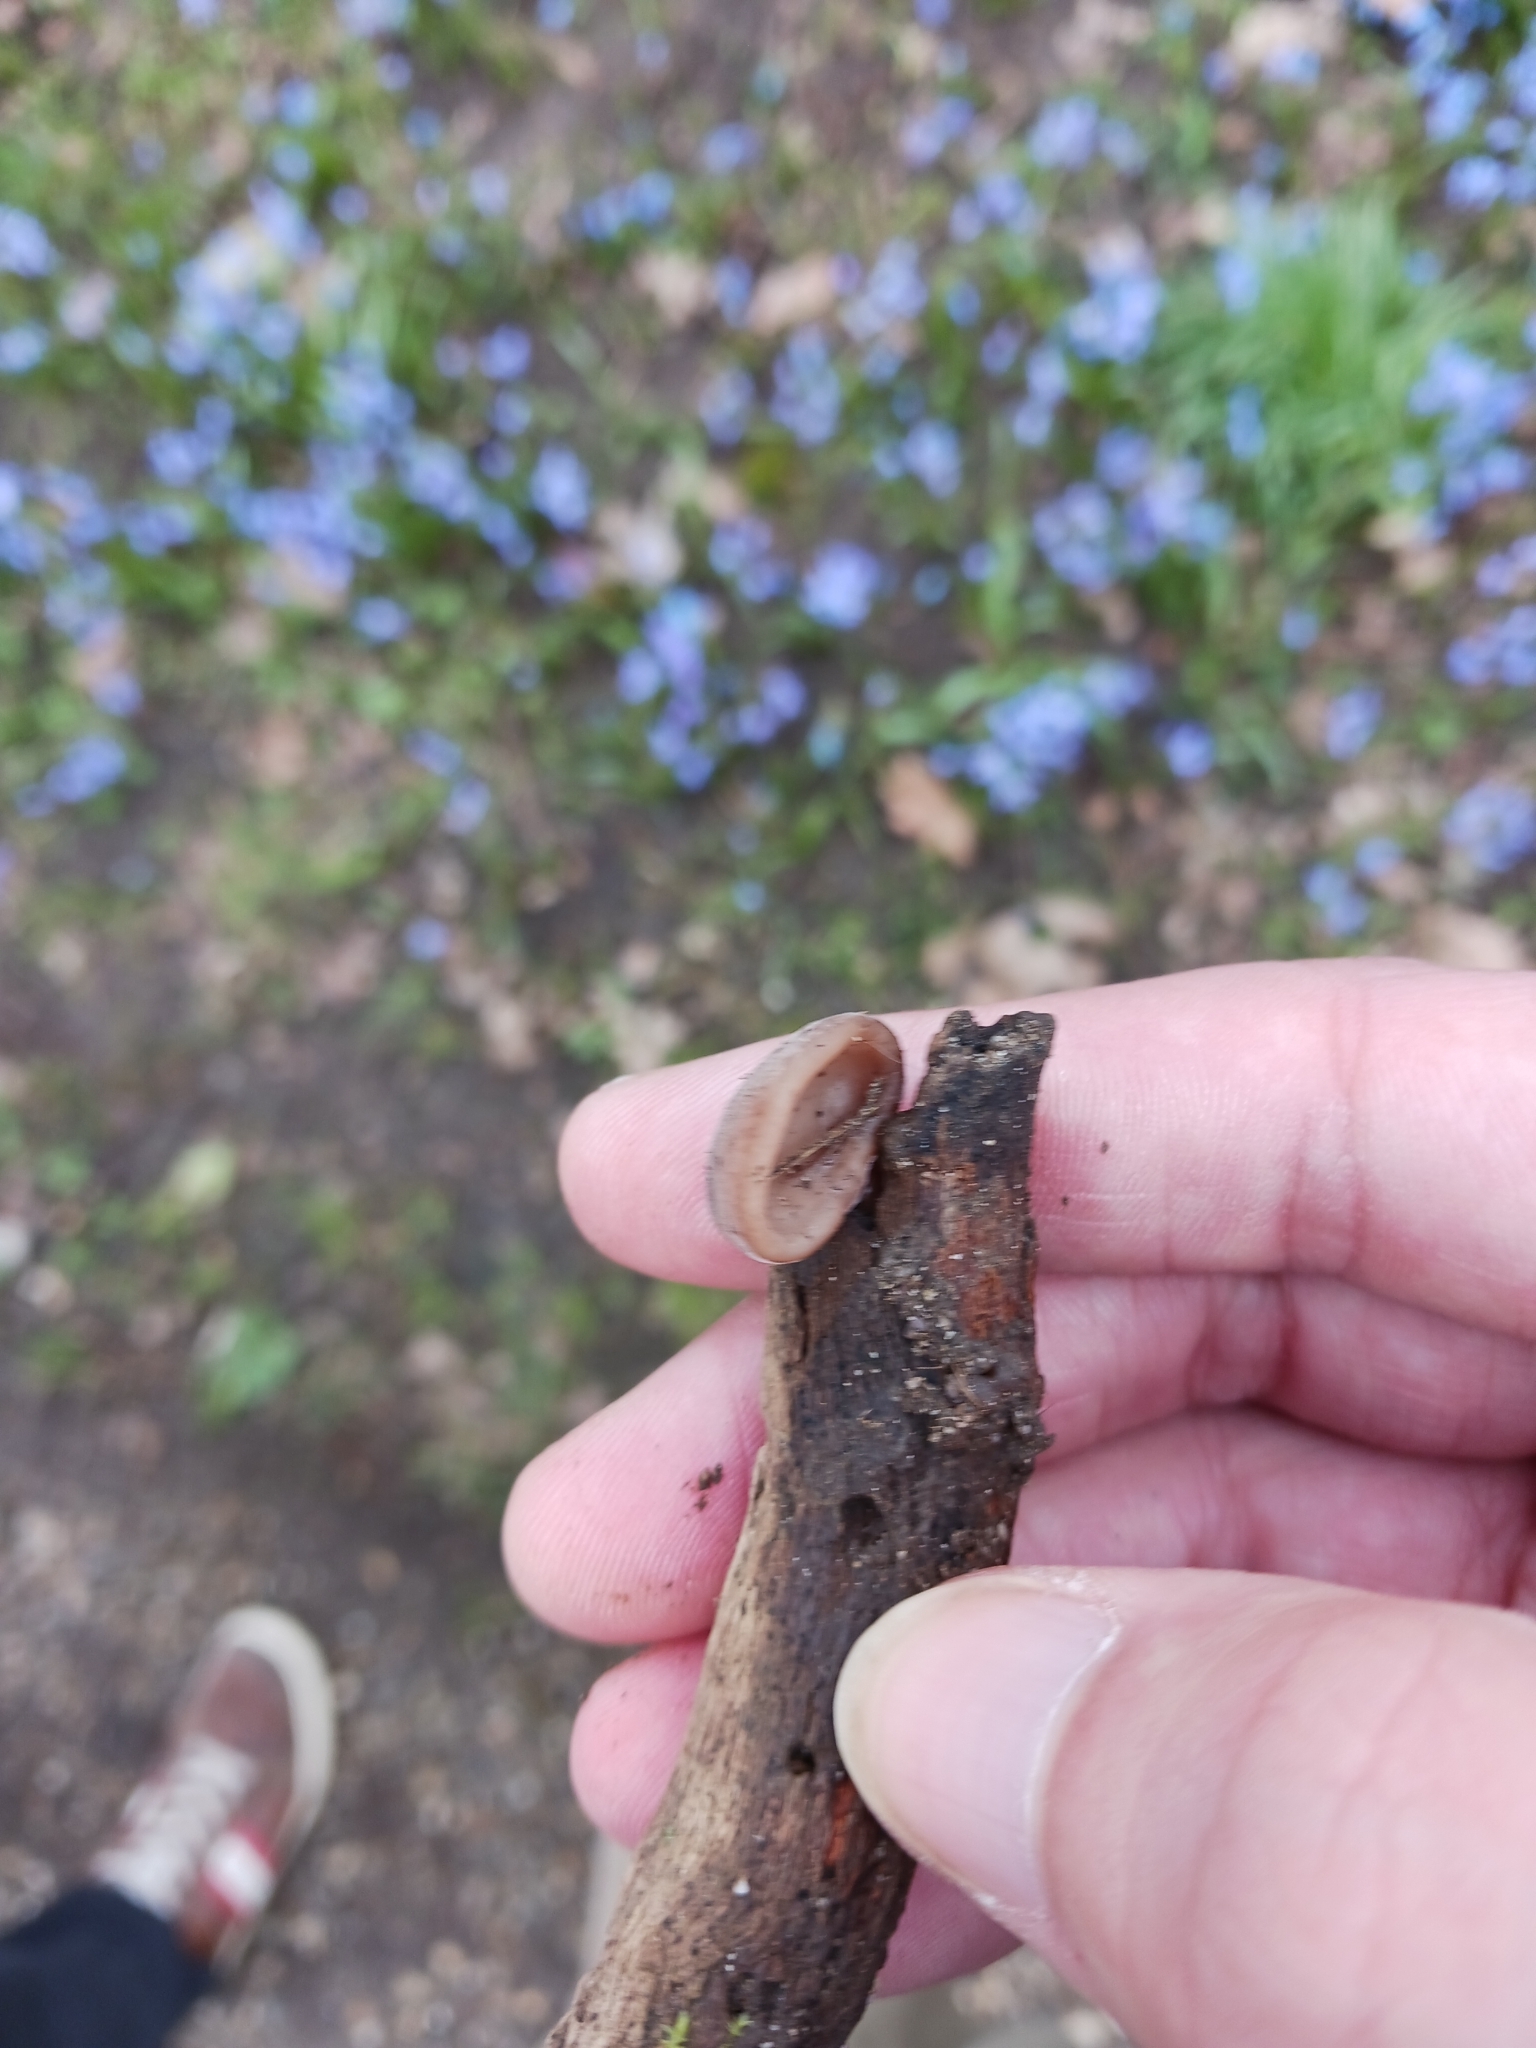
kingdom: Fungi
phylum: Basidiomycota
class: Agaricomycetes
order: Auriculariales
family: Auriculariaceae
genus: Auricularia
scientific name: Auricularia auricula-judae
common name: Jelly ear
